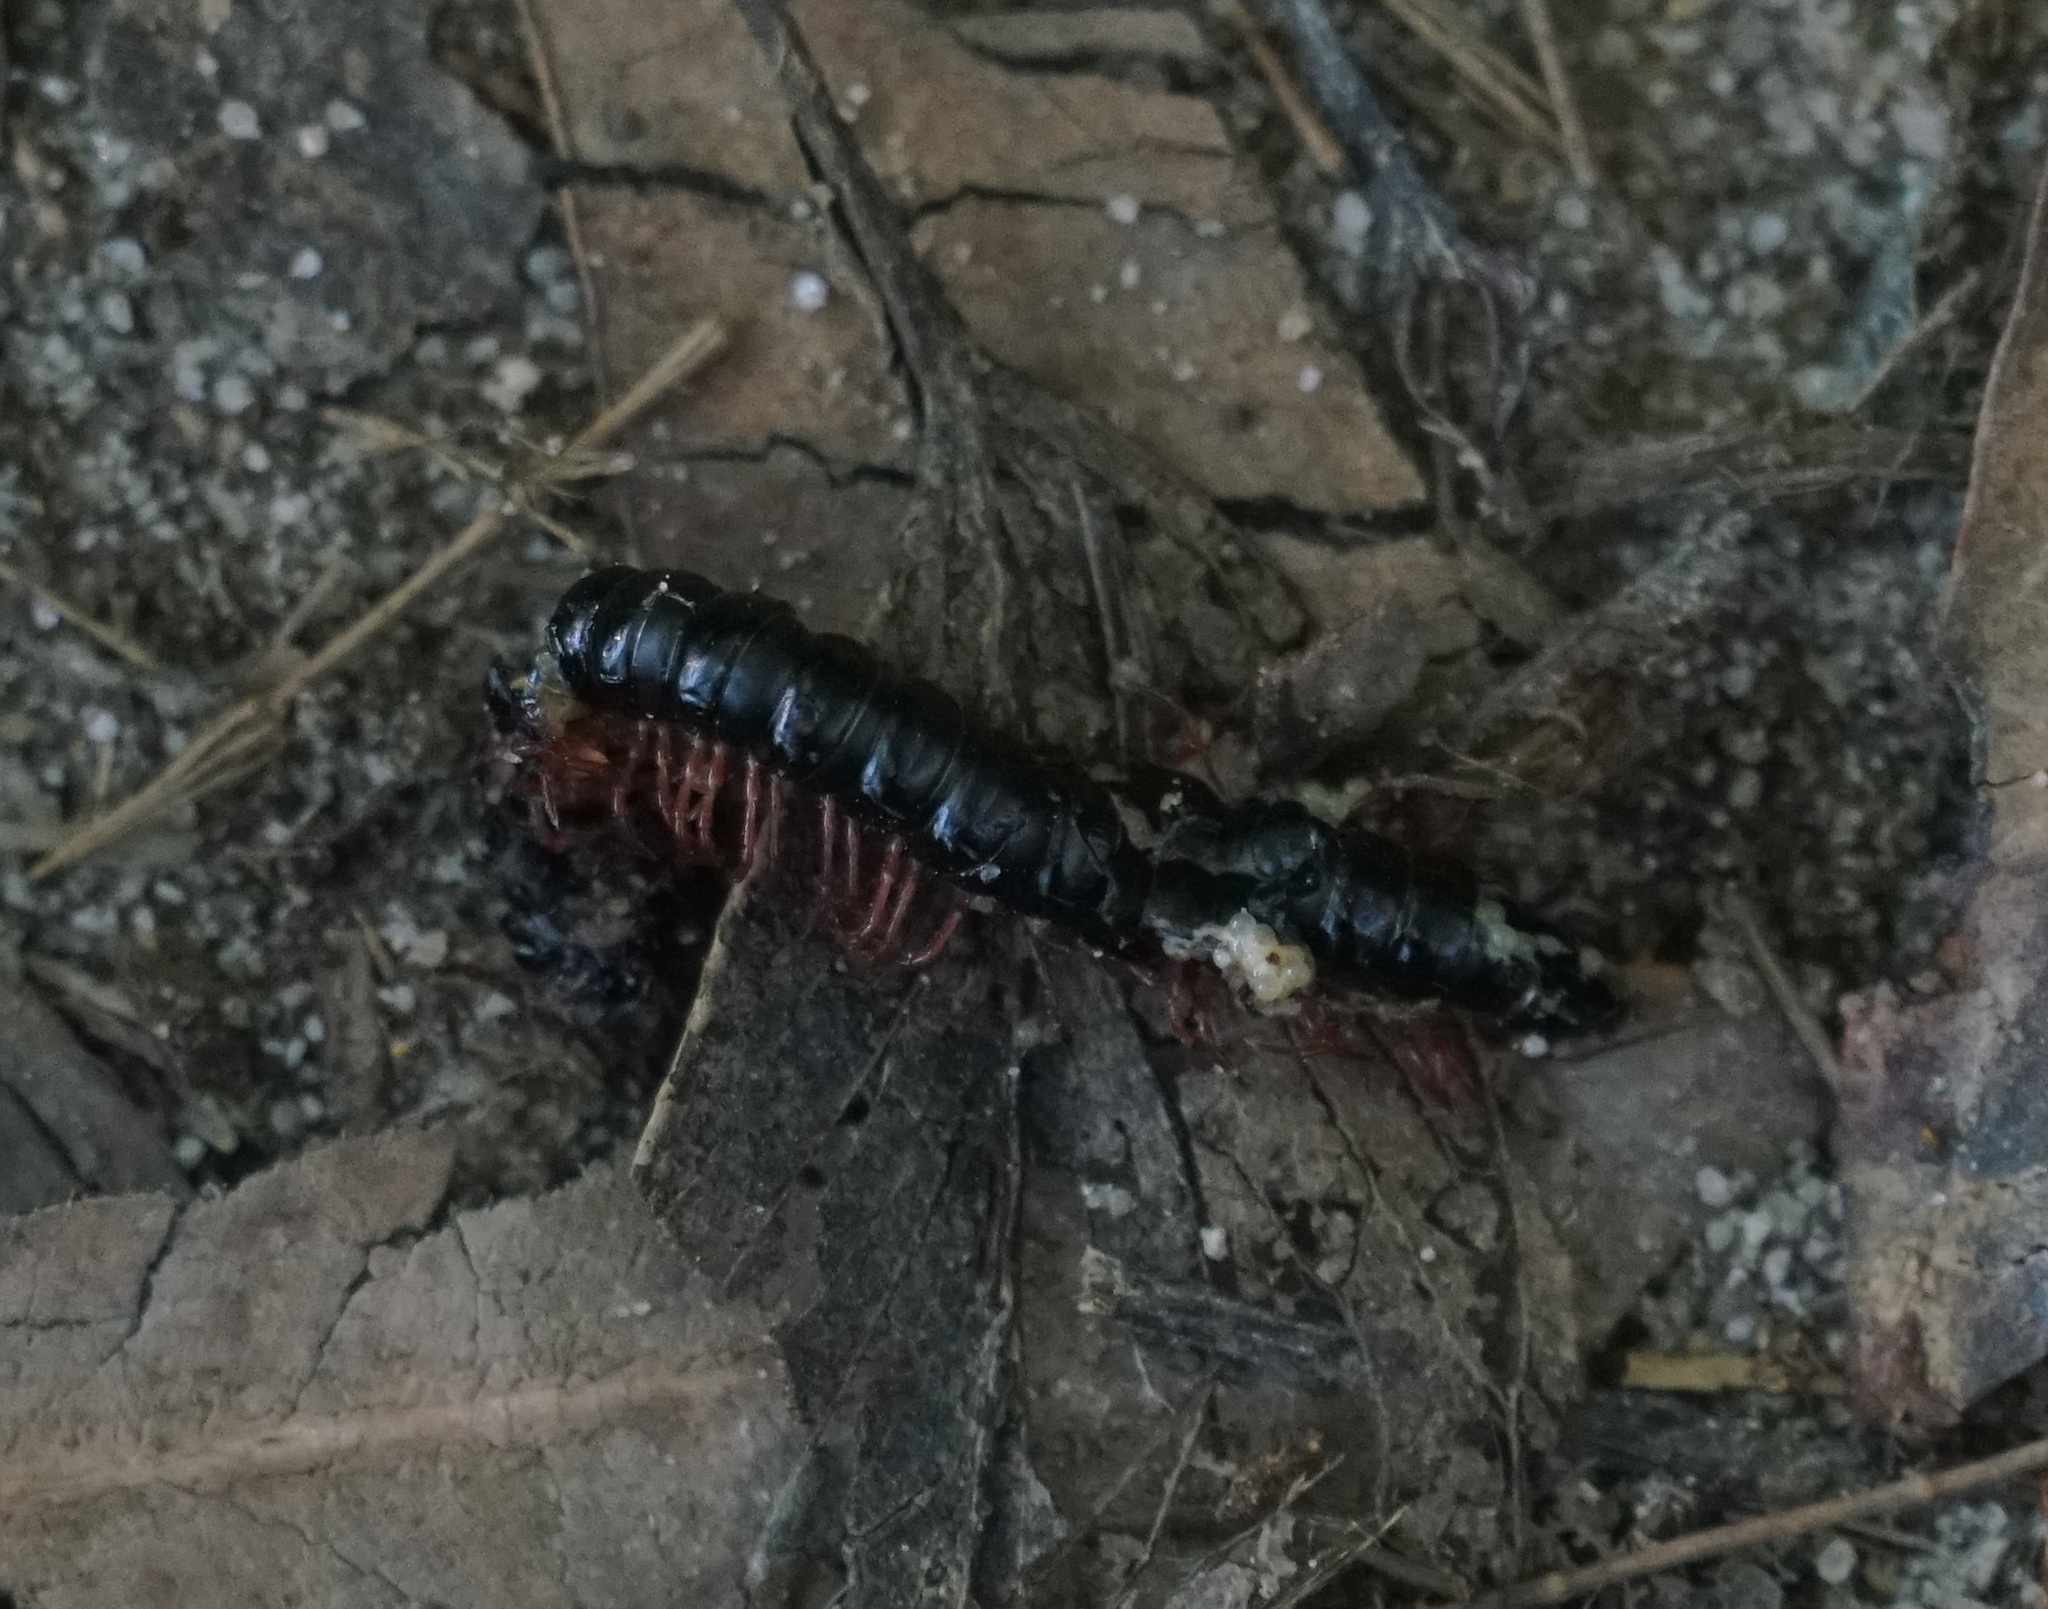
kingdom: Animalia
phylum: Arthropoda
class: Diplopoda
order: Polydesmida
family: Paradoxosomatidae
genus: Heterocladosoma
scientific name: Heterocladosoma
